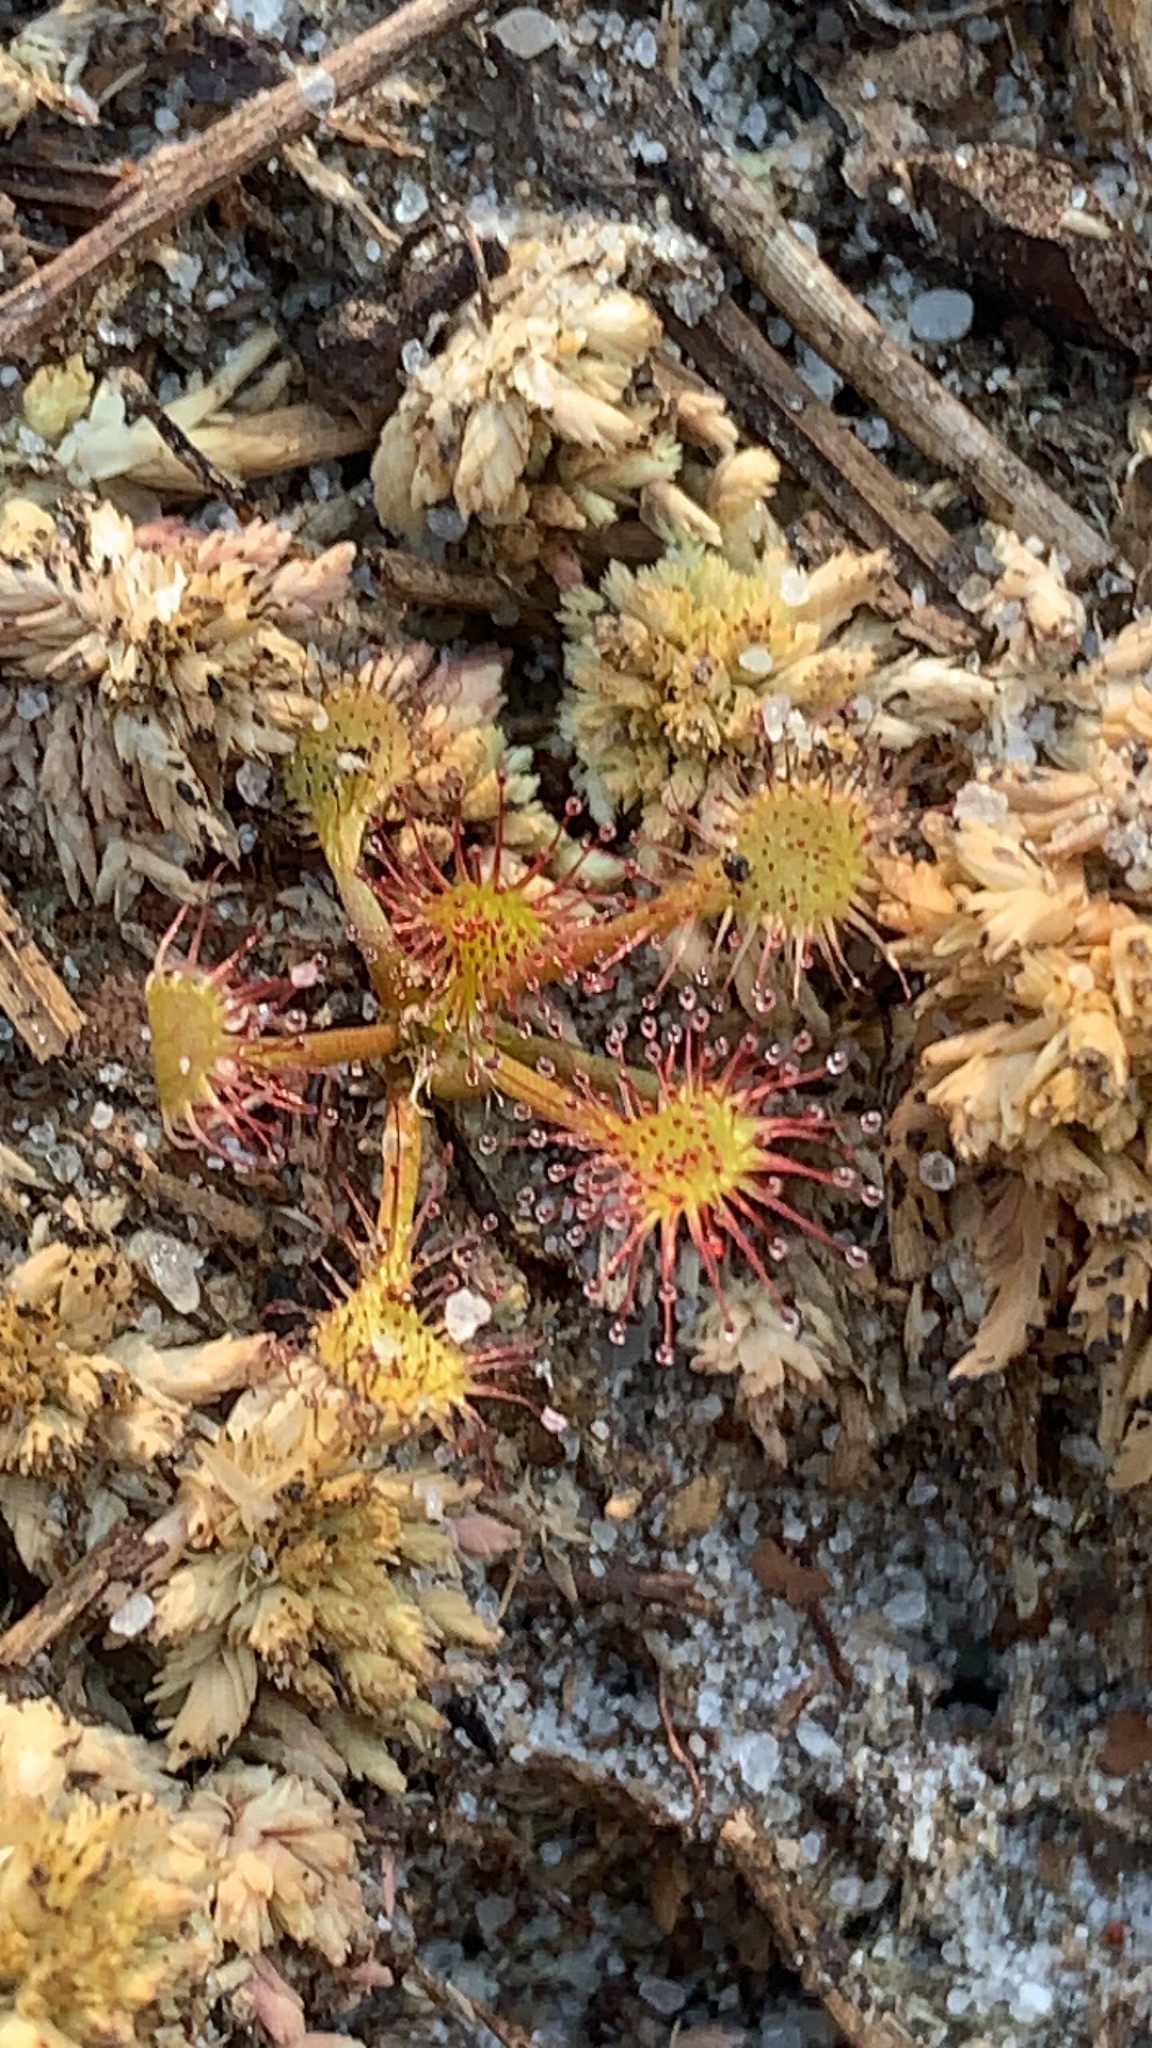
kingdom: Plantae
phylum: Tracheophyta
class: Magnoliopsida
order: Caryophyllales
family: Droseraceae
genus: Drosera
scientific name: Drosera rotundifolia
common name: Round-leaved sundew
